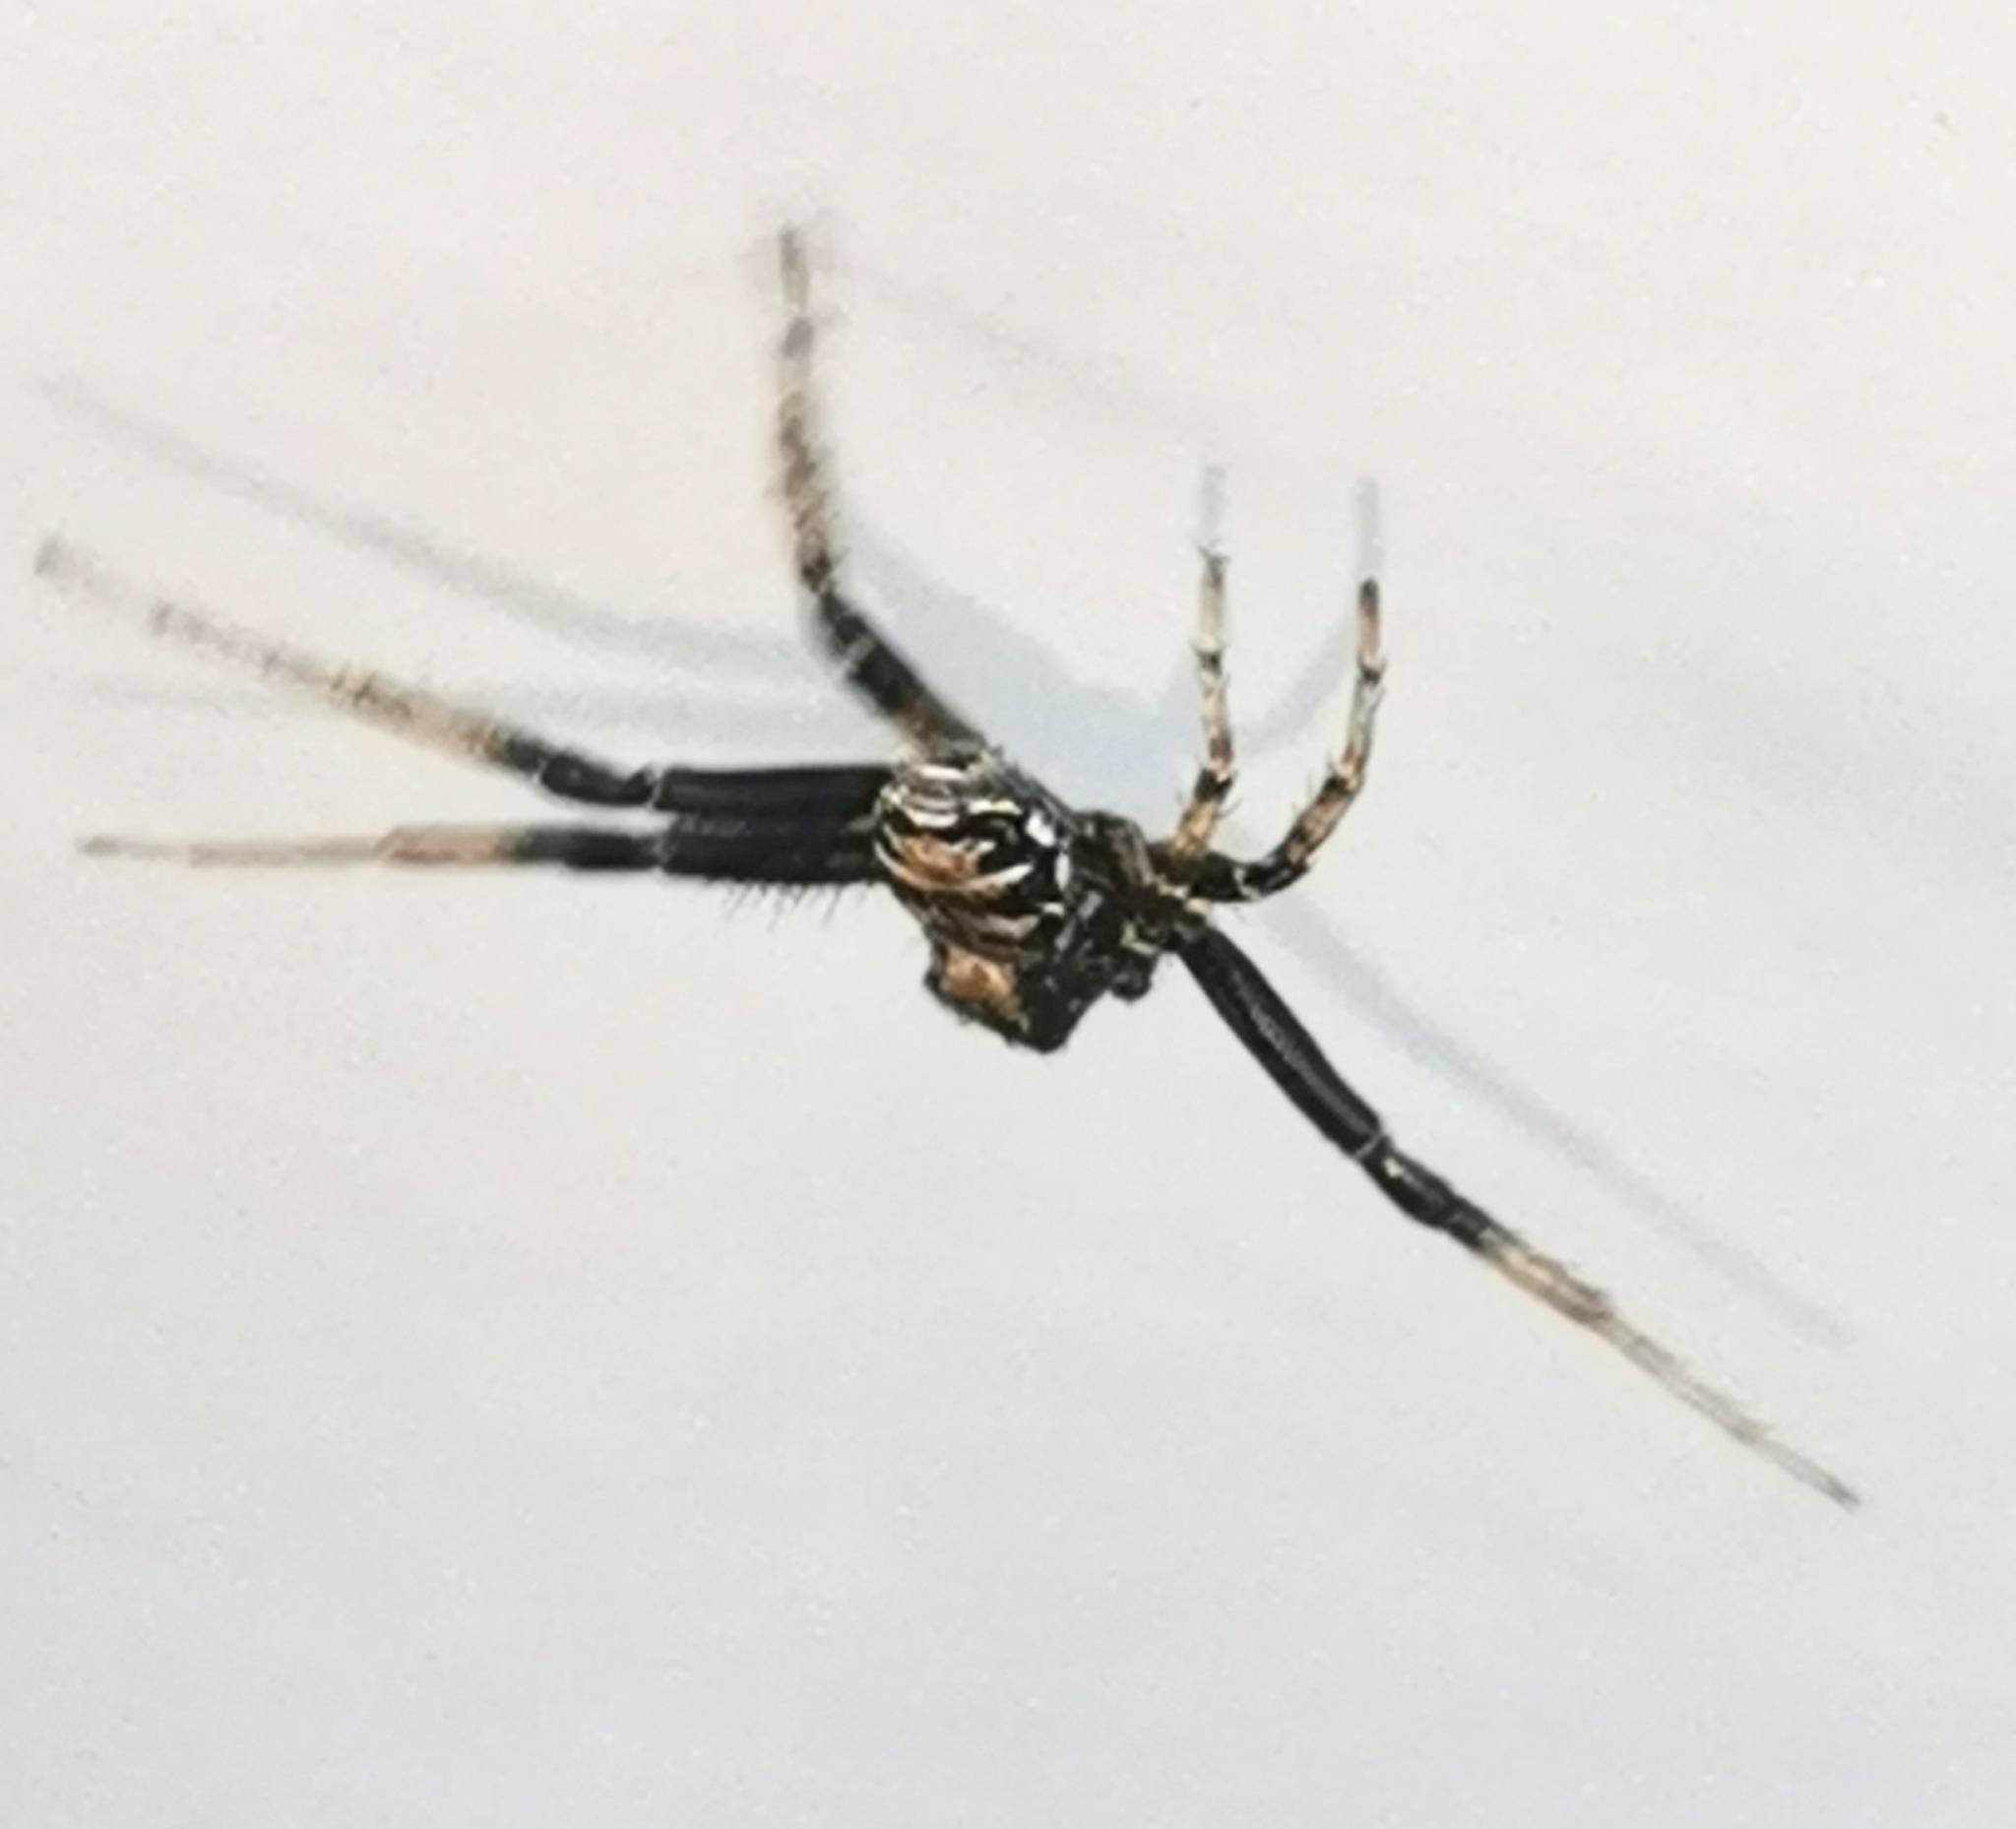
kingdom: Animalia
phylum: Arthropoda
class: Arachnida
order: Araneae
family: Thomisidae
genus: Xysticus
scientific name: Xysticus
